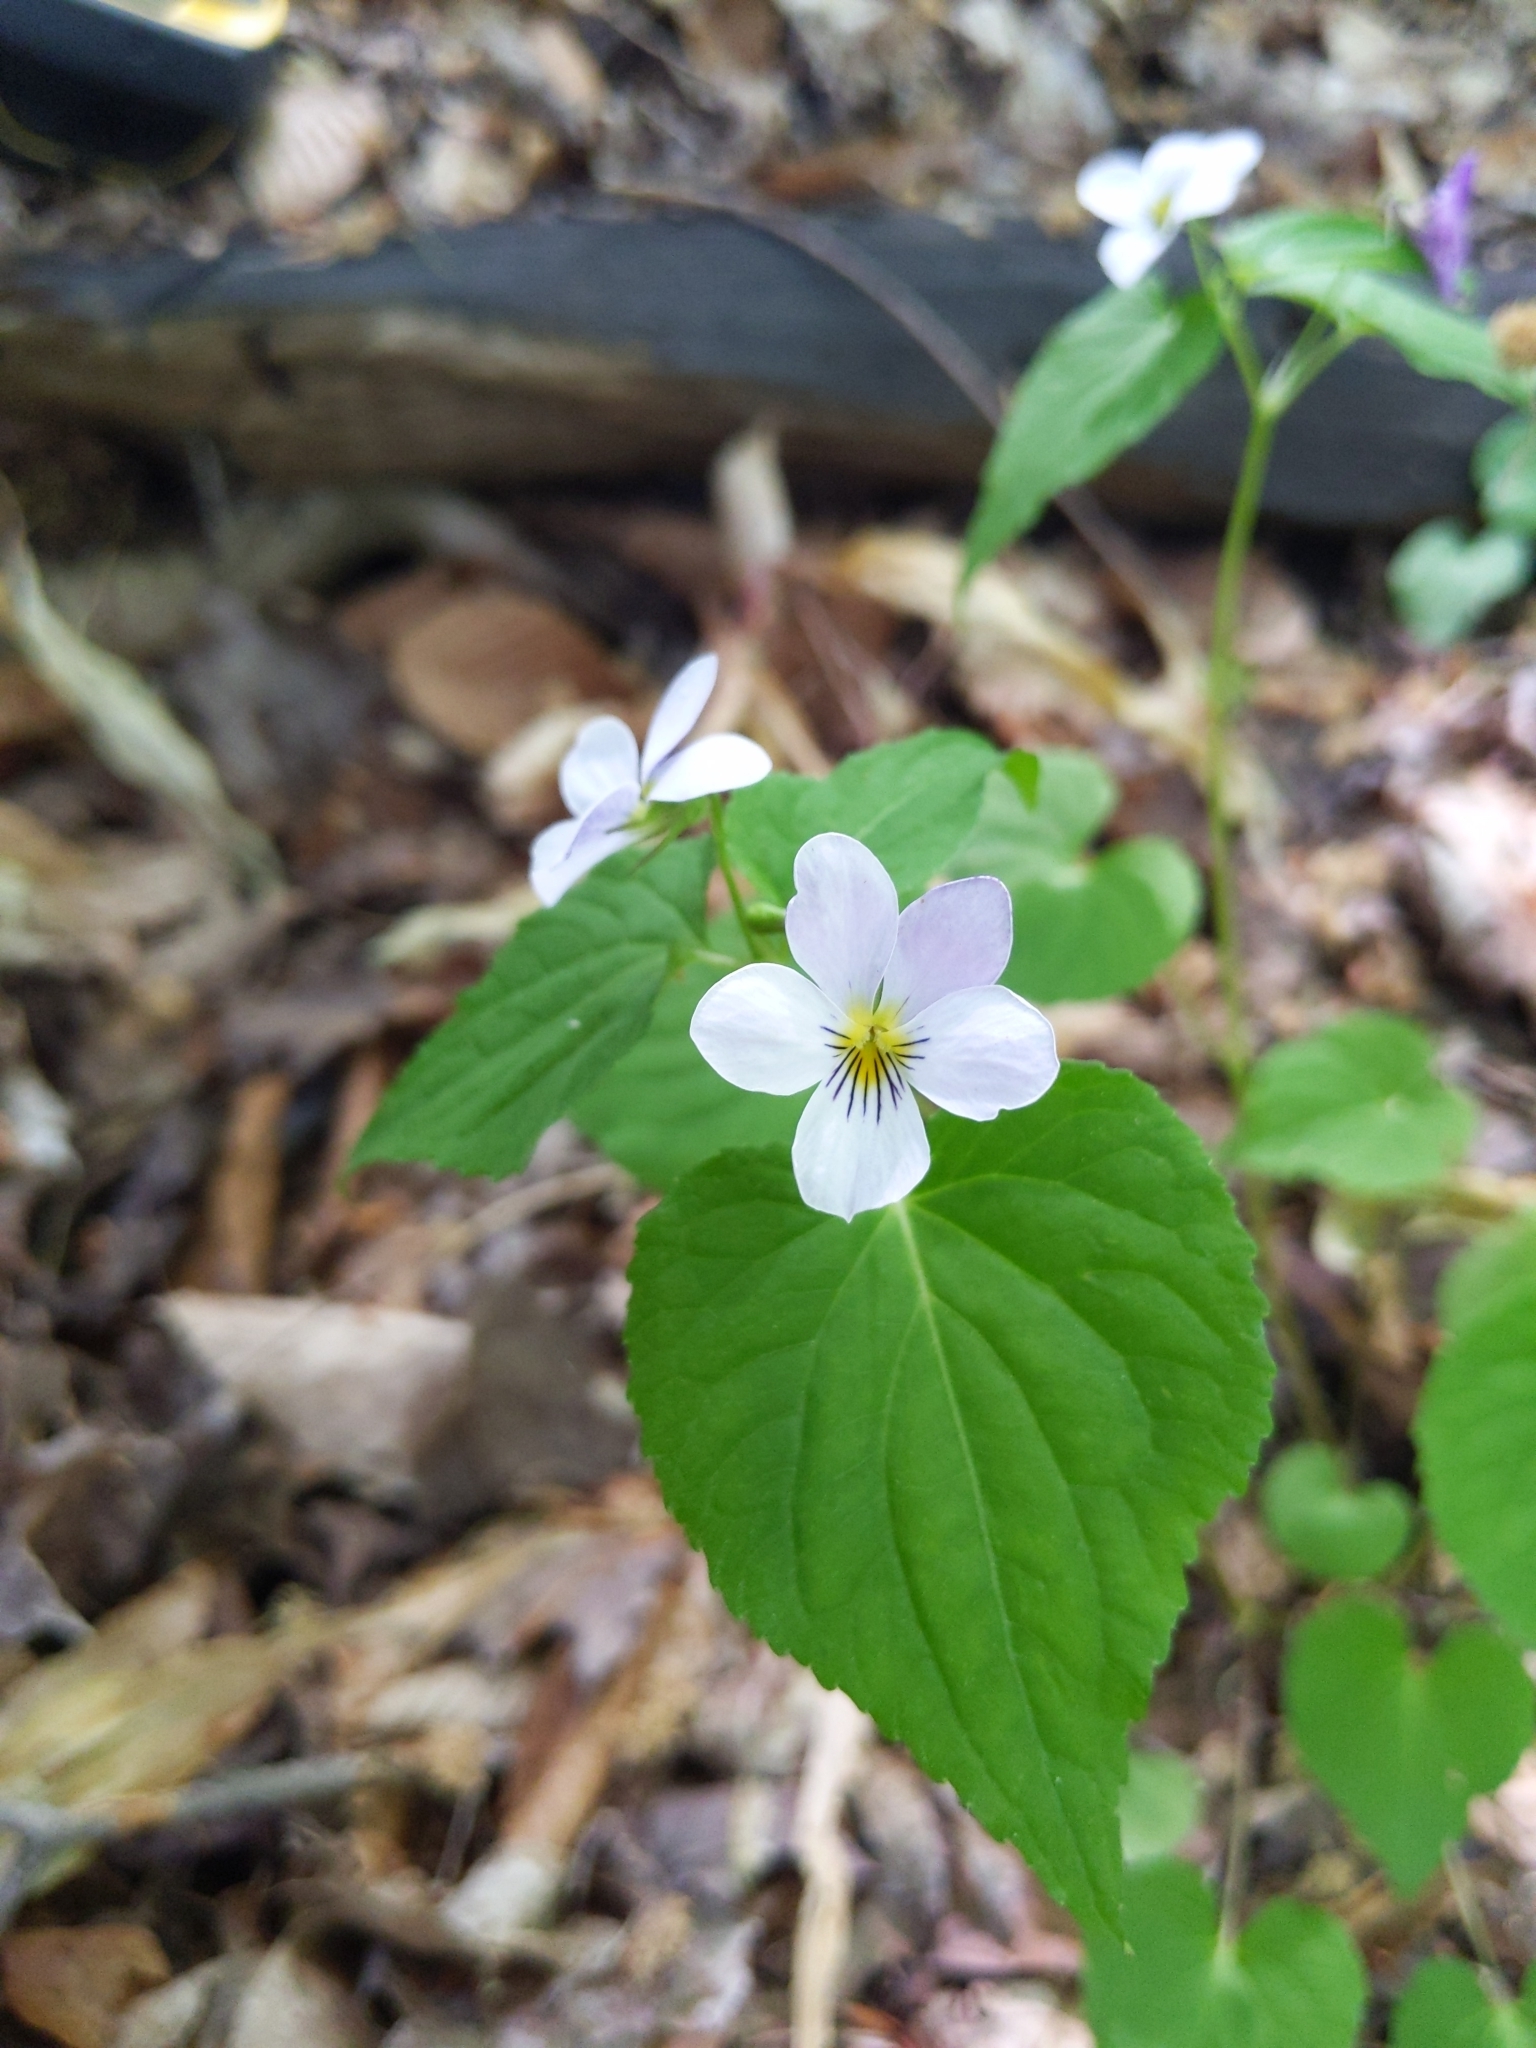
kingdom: Plantae
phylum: Tracheophyta
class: Magnoliopsida
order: Malpighiales
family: Violaceae
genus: Viola
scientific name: Viola canadensis
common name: Canada violet
